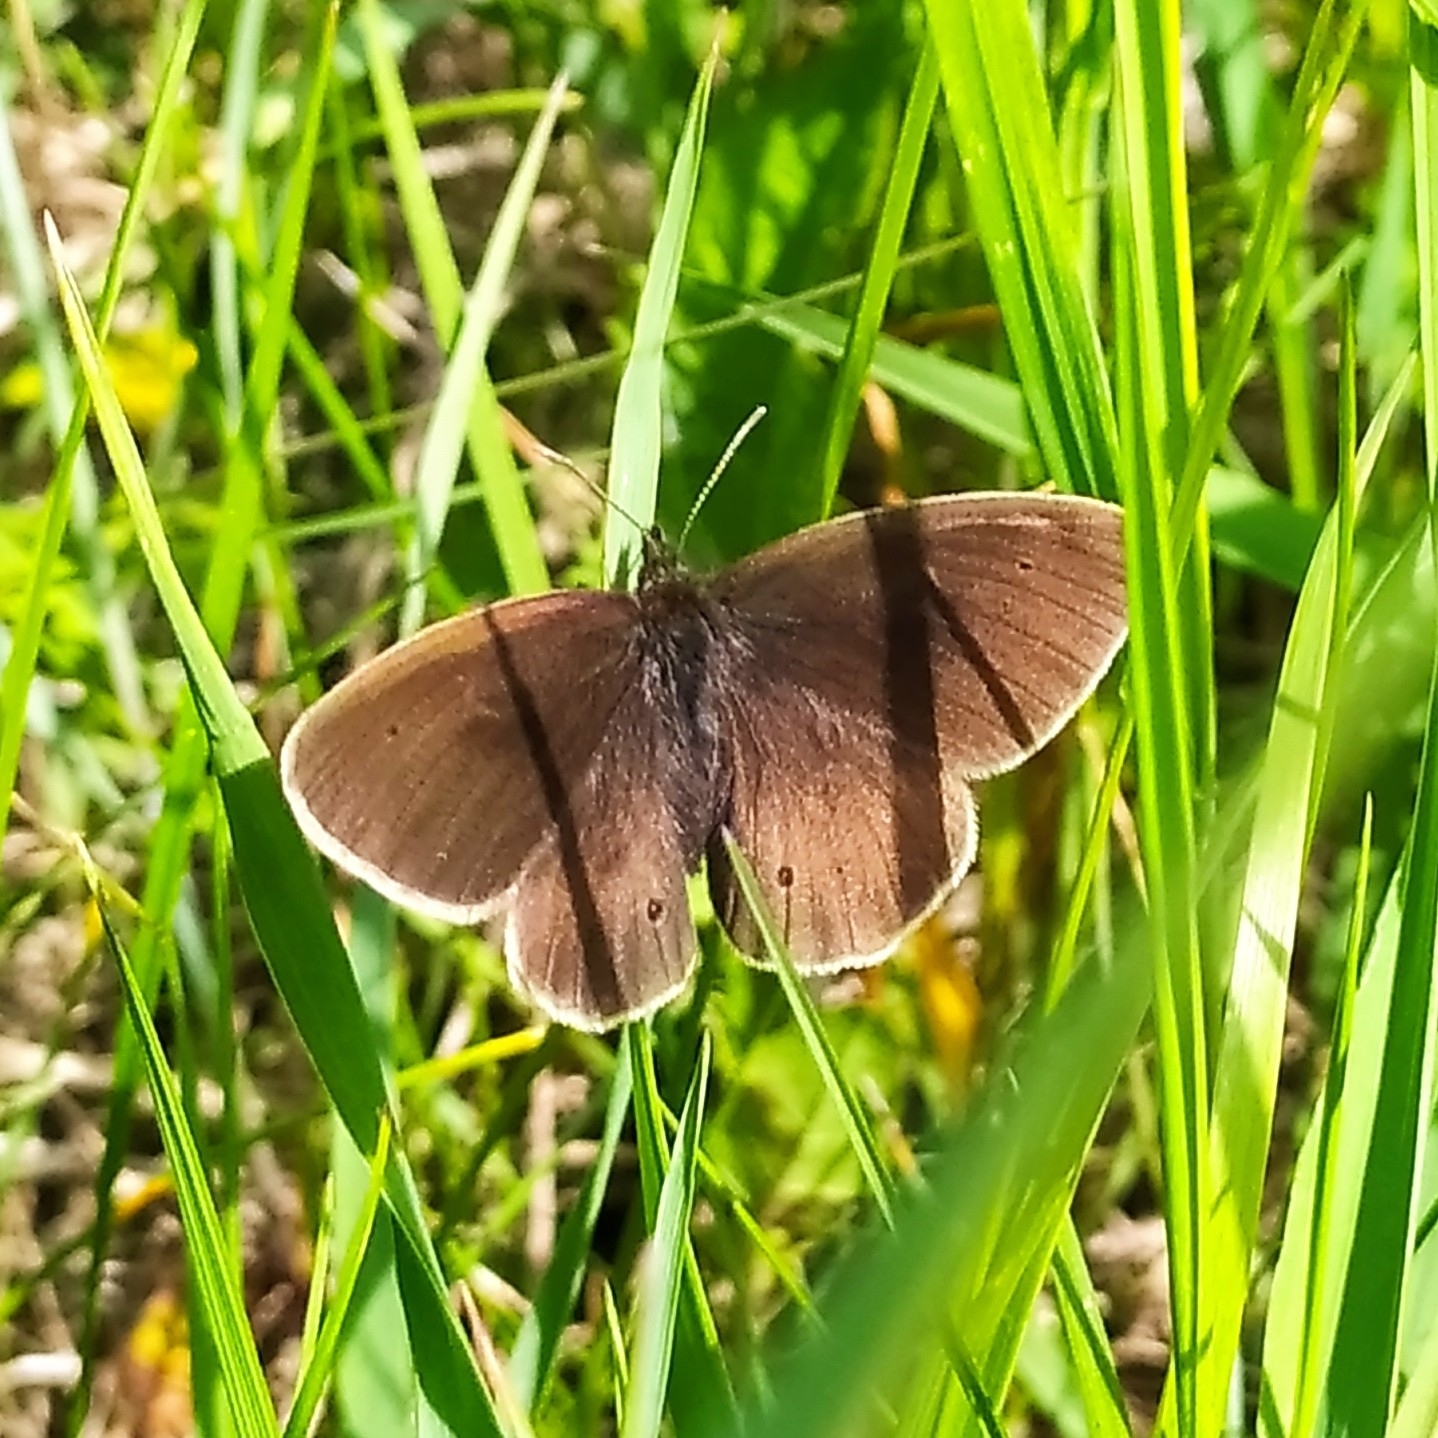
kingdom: Animalia
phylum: Arthropoda
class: Insecta
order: Lepidoptera
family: Nymphalidae
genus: Aphantopus
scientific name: Aphantopus hyperantus
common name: Ringlet
